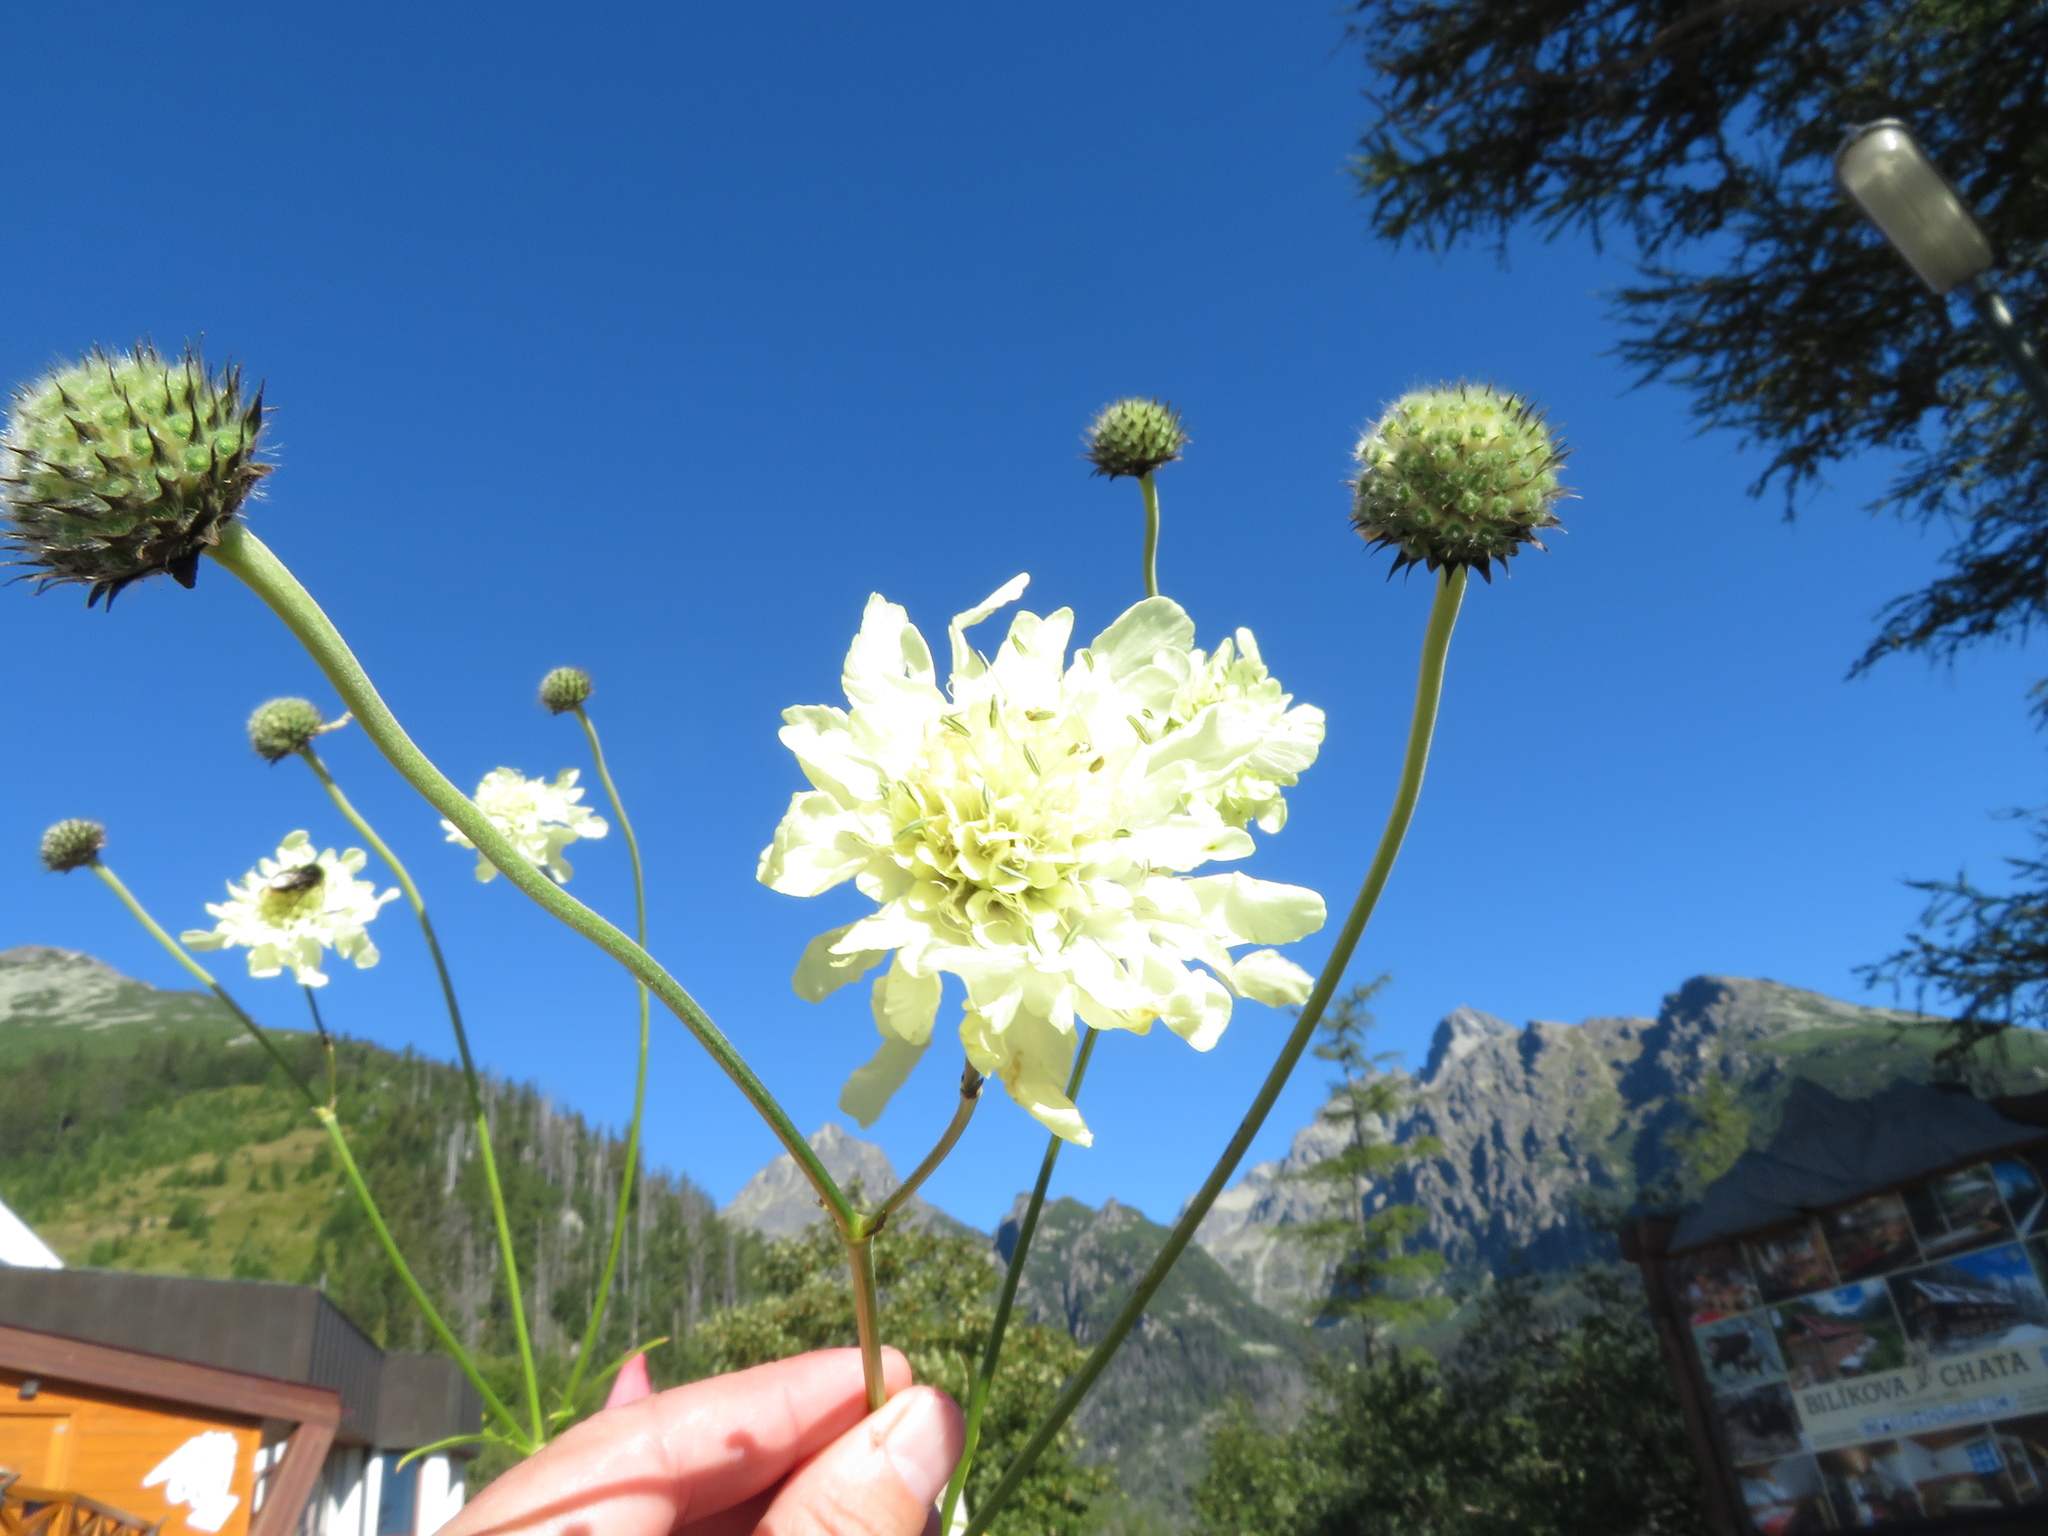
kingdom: Plantae
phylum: Tracheophyta
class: Magnoliopsida
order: Dipsacales
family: Caprifoliaceae
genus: Cephalaria
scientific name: Cephalaria gigantea
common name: Tatarian cephalaria
